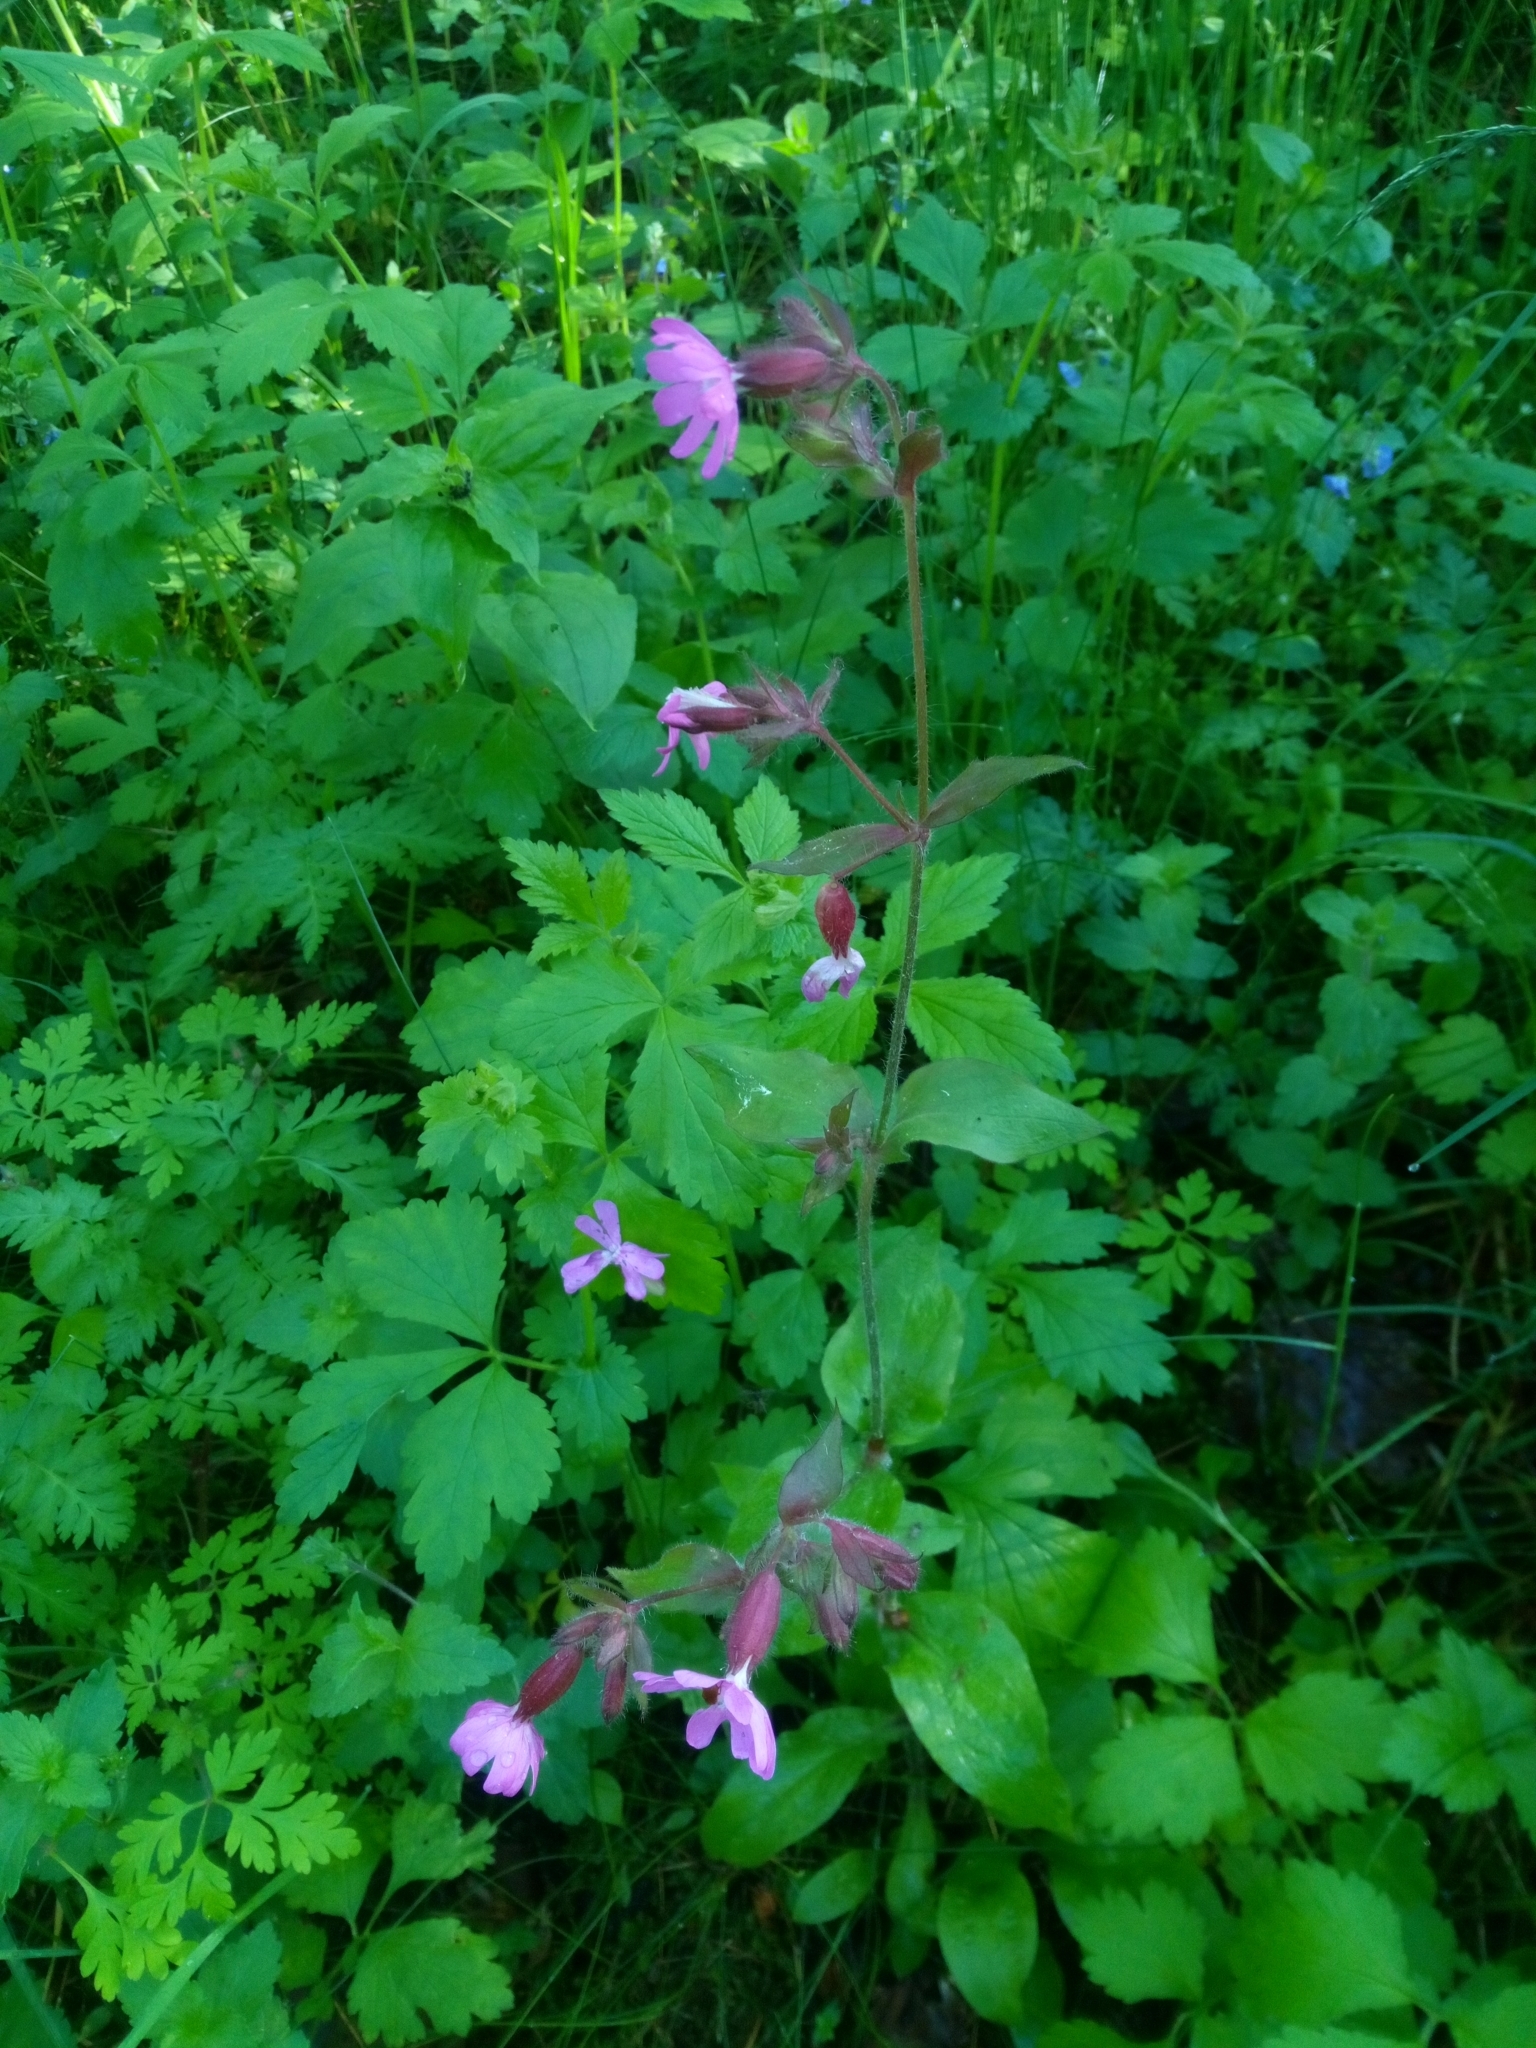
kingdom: Plantae
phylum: Tracheophyta
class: Magnoliopsida
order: Caryophyllales
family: Caryophyllaceae
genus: Silene
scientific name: Silene dioica
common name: Red campion
